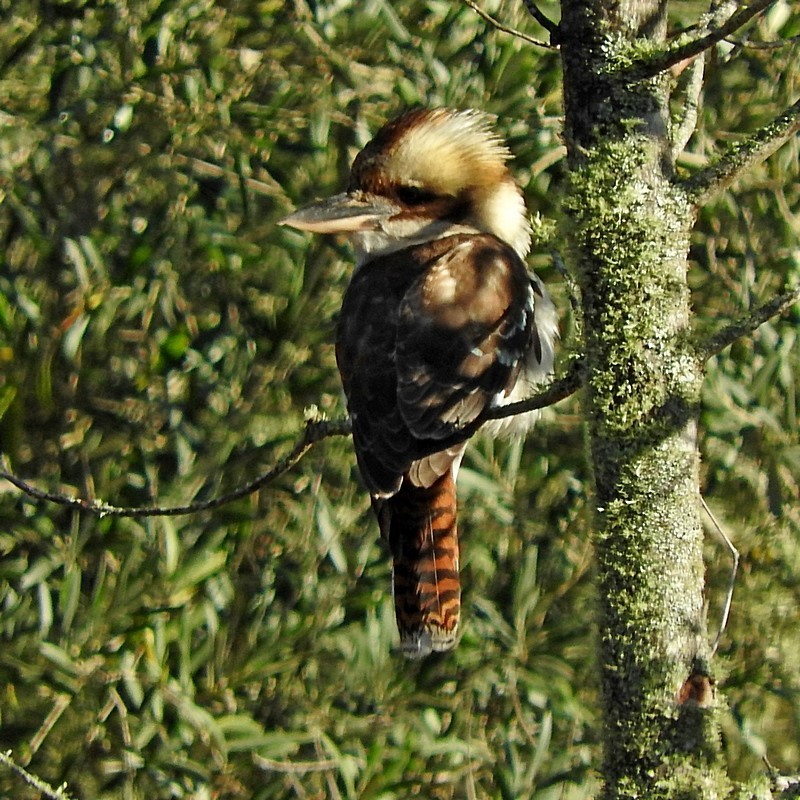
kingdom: Animalia
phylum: Chordata
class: Aves
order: Coraciiformes
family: Alcedinidae
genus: Dacelo
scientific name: Dacelo novaeguineae
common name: Laughing kookaburra
